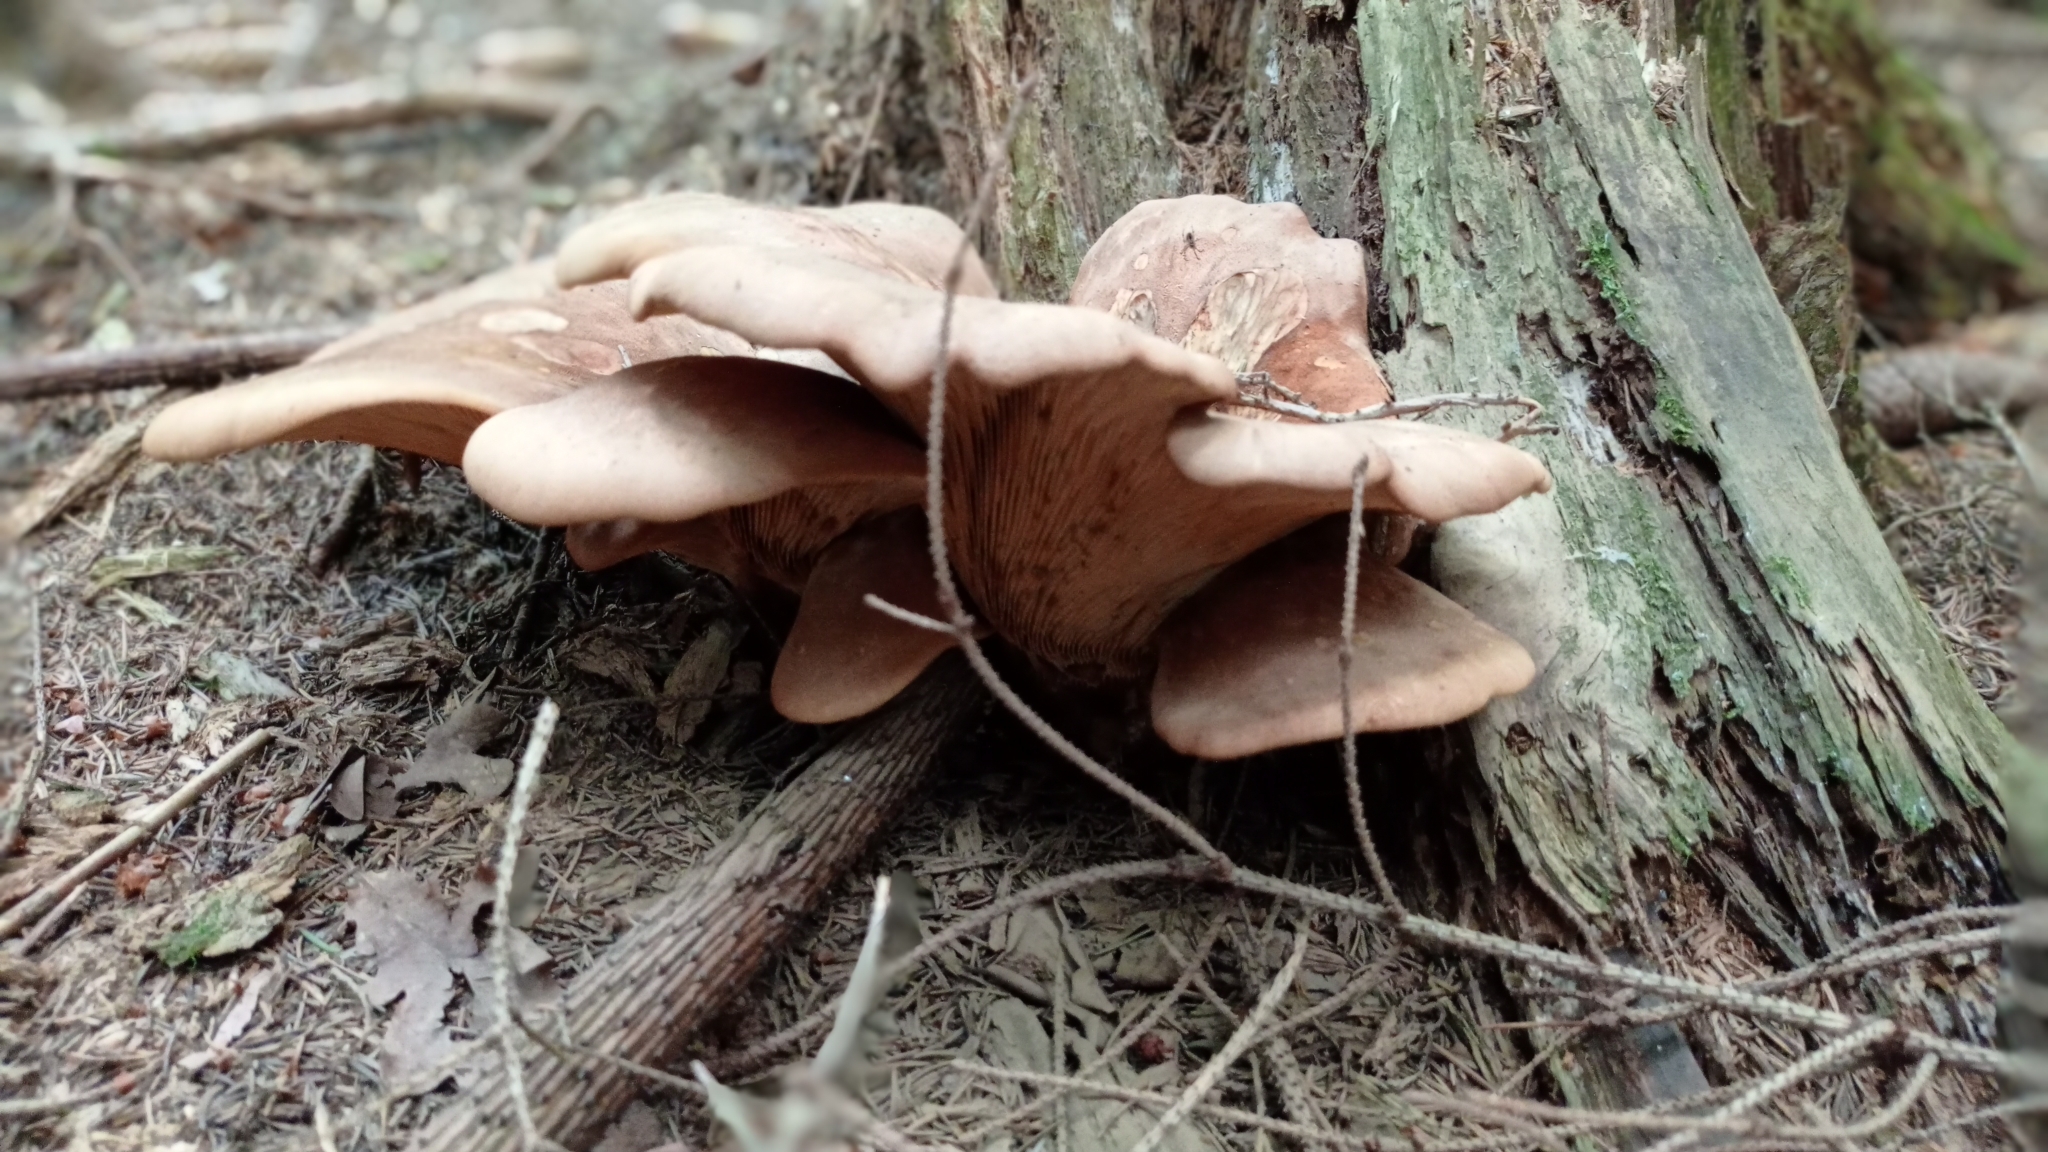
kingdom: Fungi
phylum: Basidiomycota
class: Agaricomycetes
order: Boletales
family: Tapinellaceae
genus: Tapinella
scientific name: Tapinella atrotomentosa
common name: Velvet rollrim
